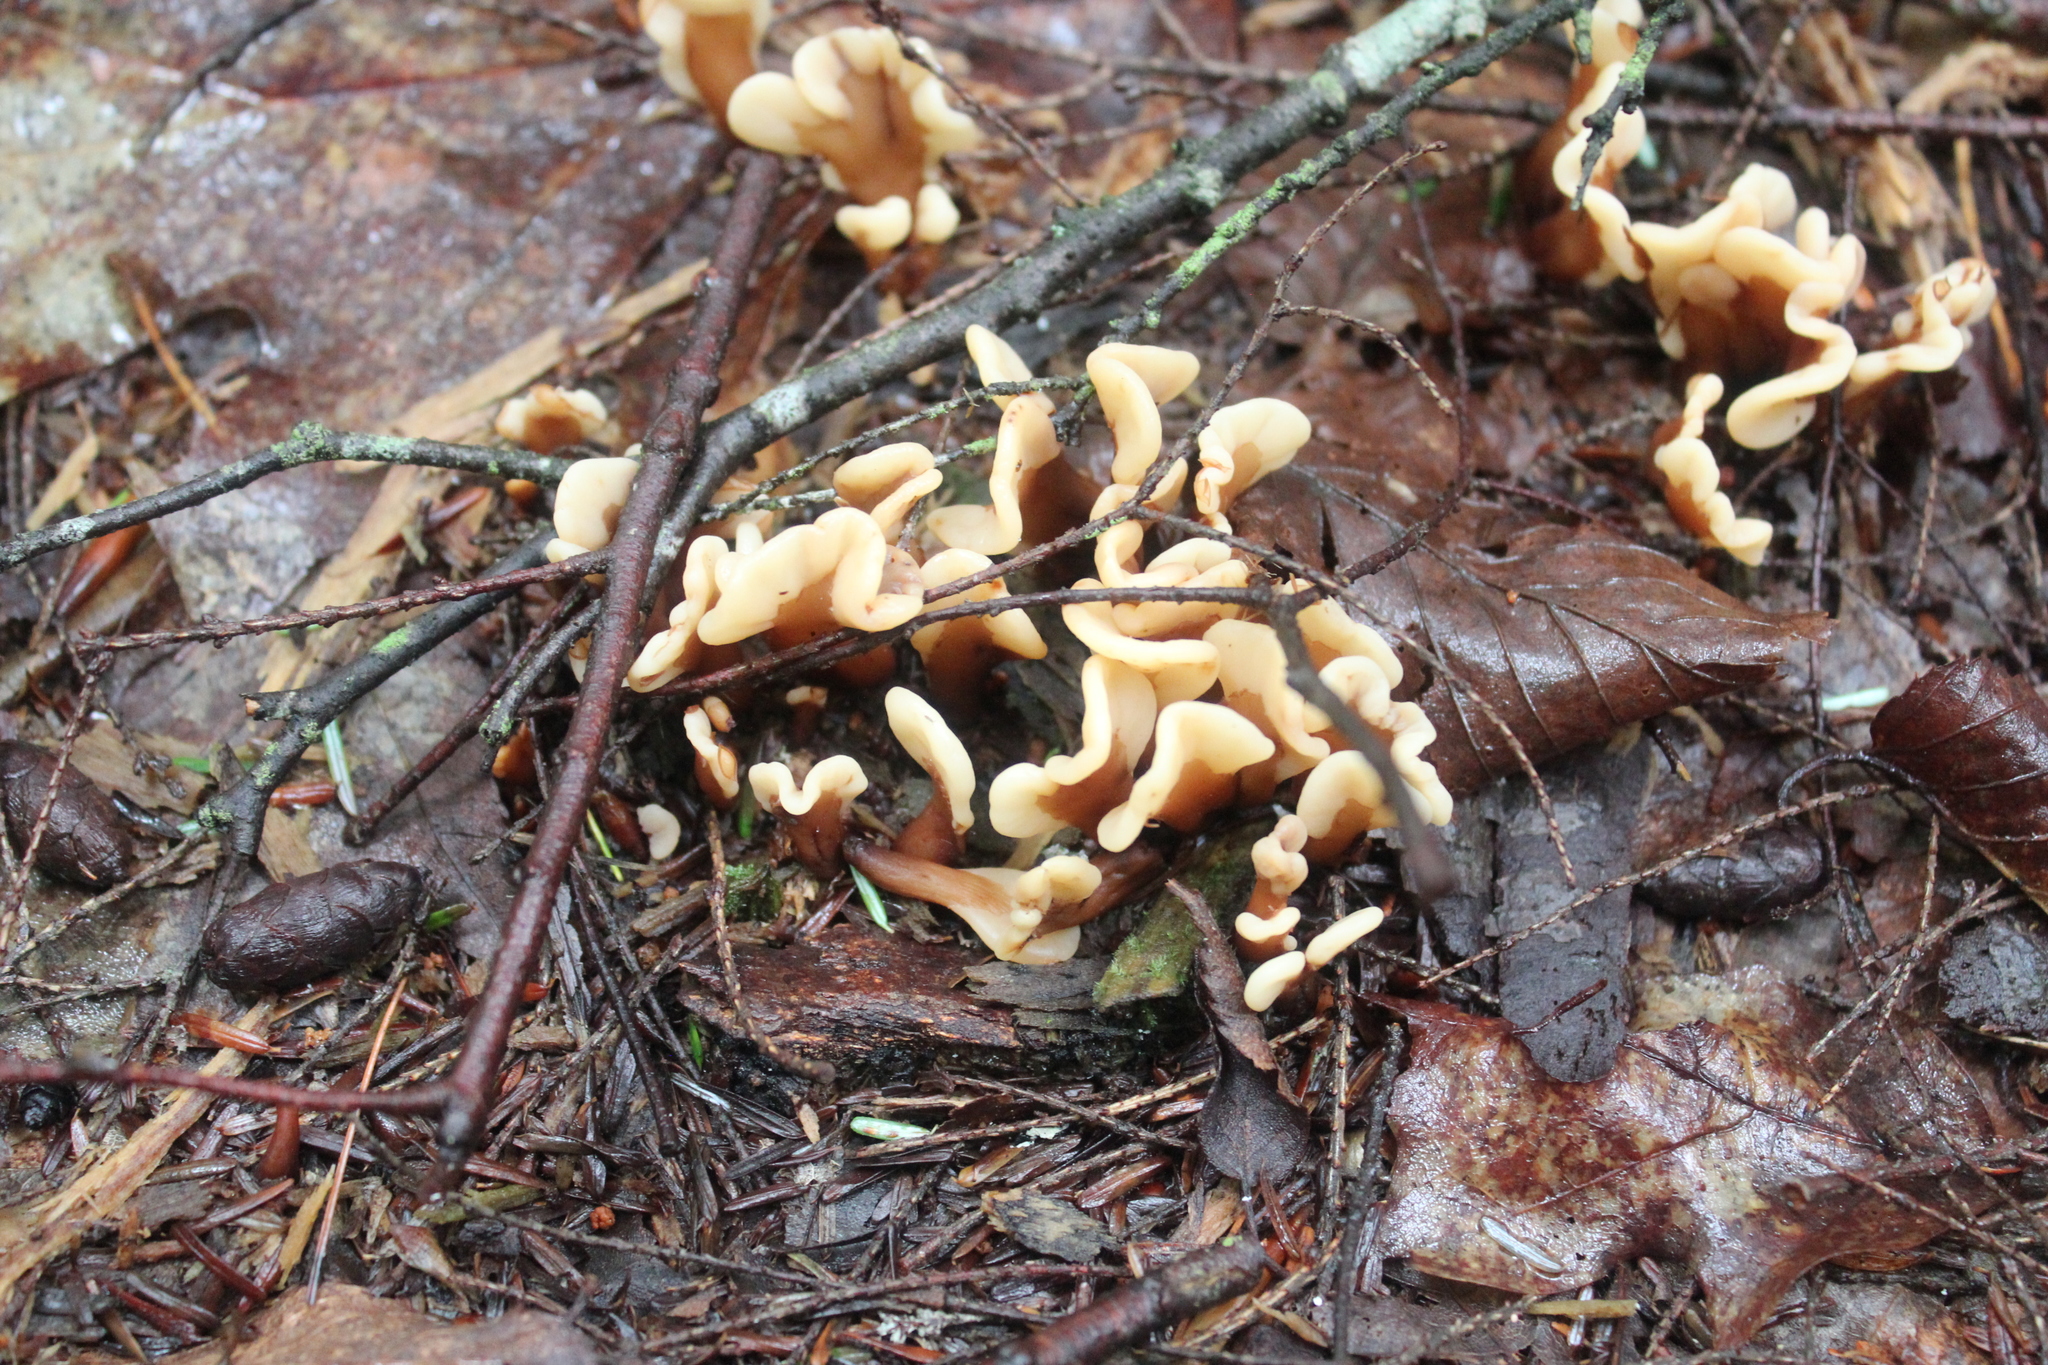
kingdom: Fungi
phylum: Ascomycota
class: Leotiomycetes
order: Rhytismatales
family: Cudoniaceae
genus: Spathulariopsis
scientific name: Spathulariopsis velutipes
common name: Velvet-foot fairy fan
